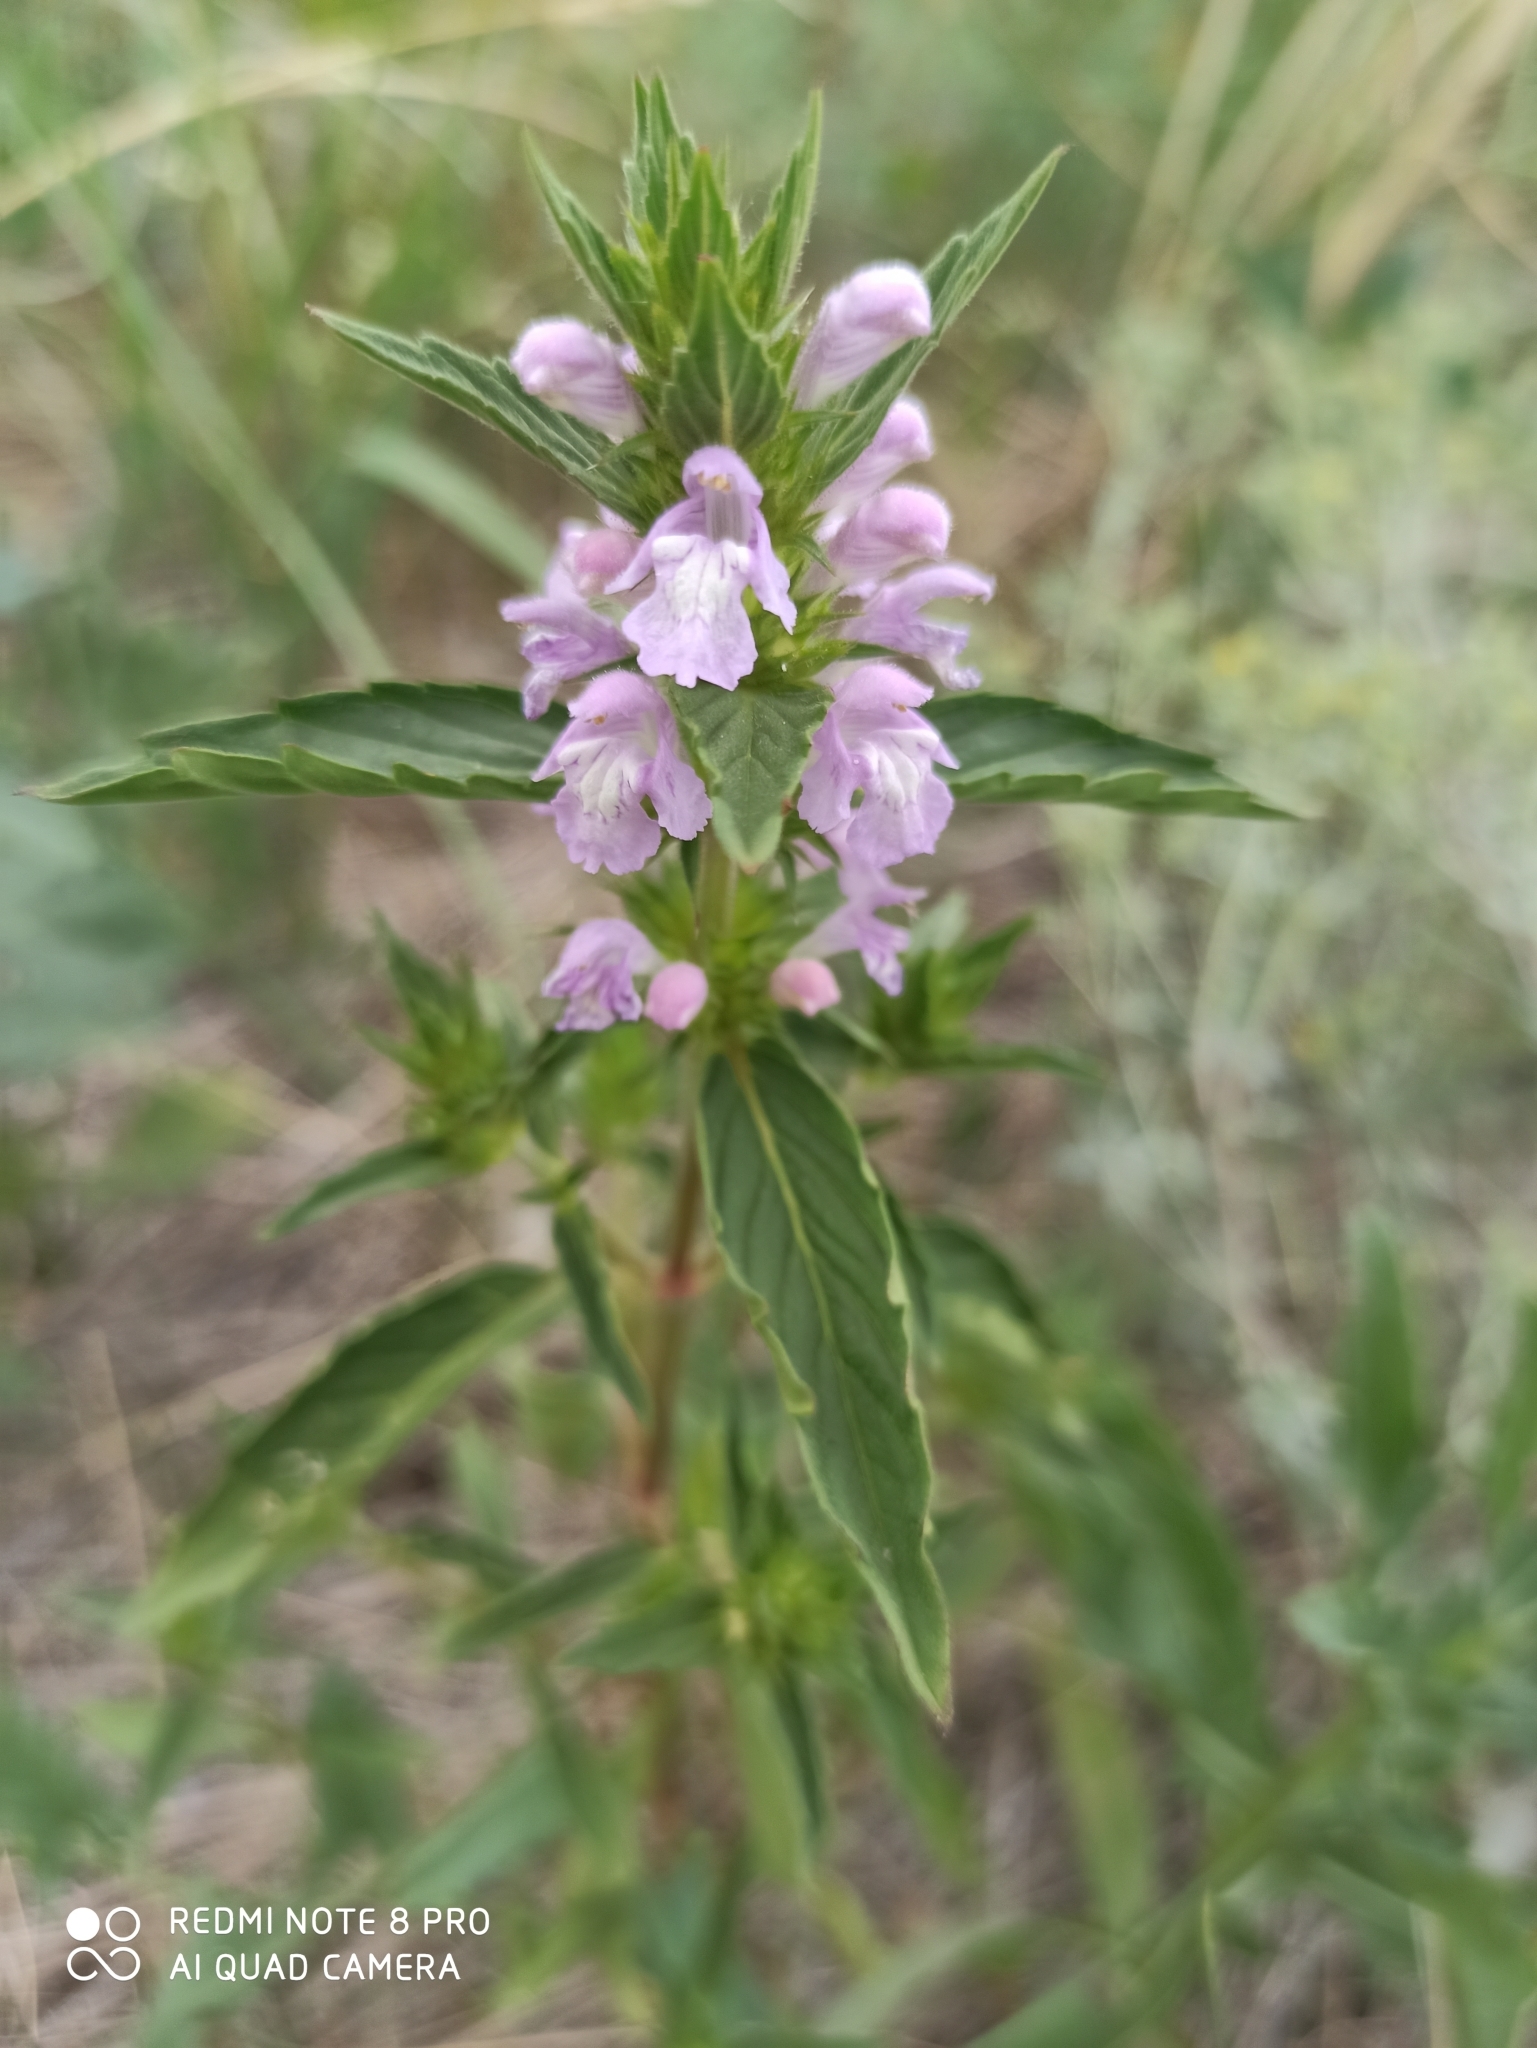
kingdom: Plantae
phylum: Tracheophyta
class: Magnoliopsida
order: Lamiales
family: Lamiaceae
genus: Galeopsis
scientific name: Galeopsis ladanum
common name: Broad-leaved hemp-nettle
